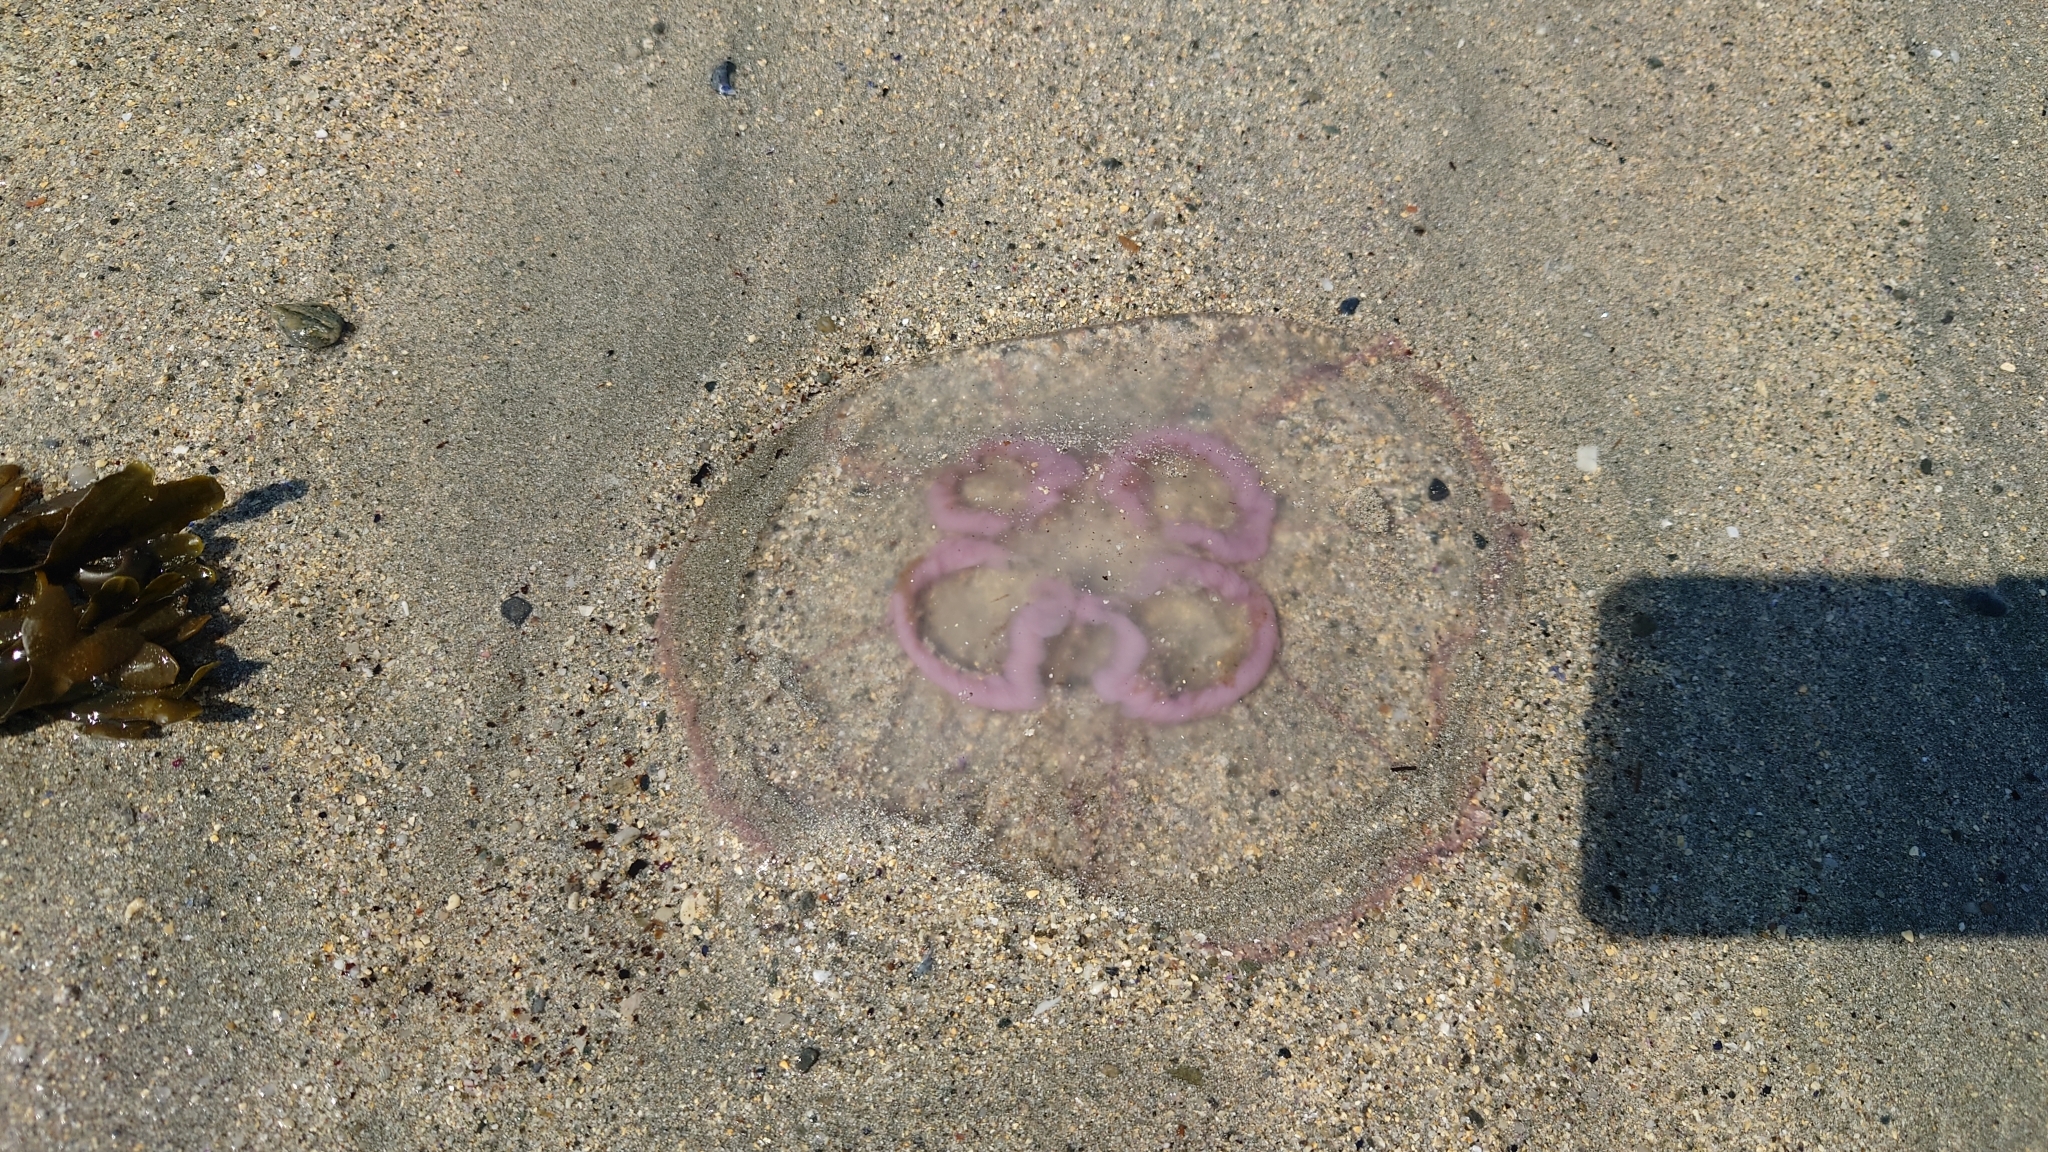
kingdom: Animalia
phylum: Cnidaria
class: Scyphozoa
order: Semaeostomeae
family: Ulmaridae
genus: Aurelia
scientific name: Aurelia aurita
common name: Moon jellyfish
